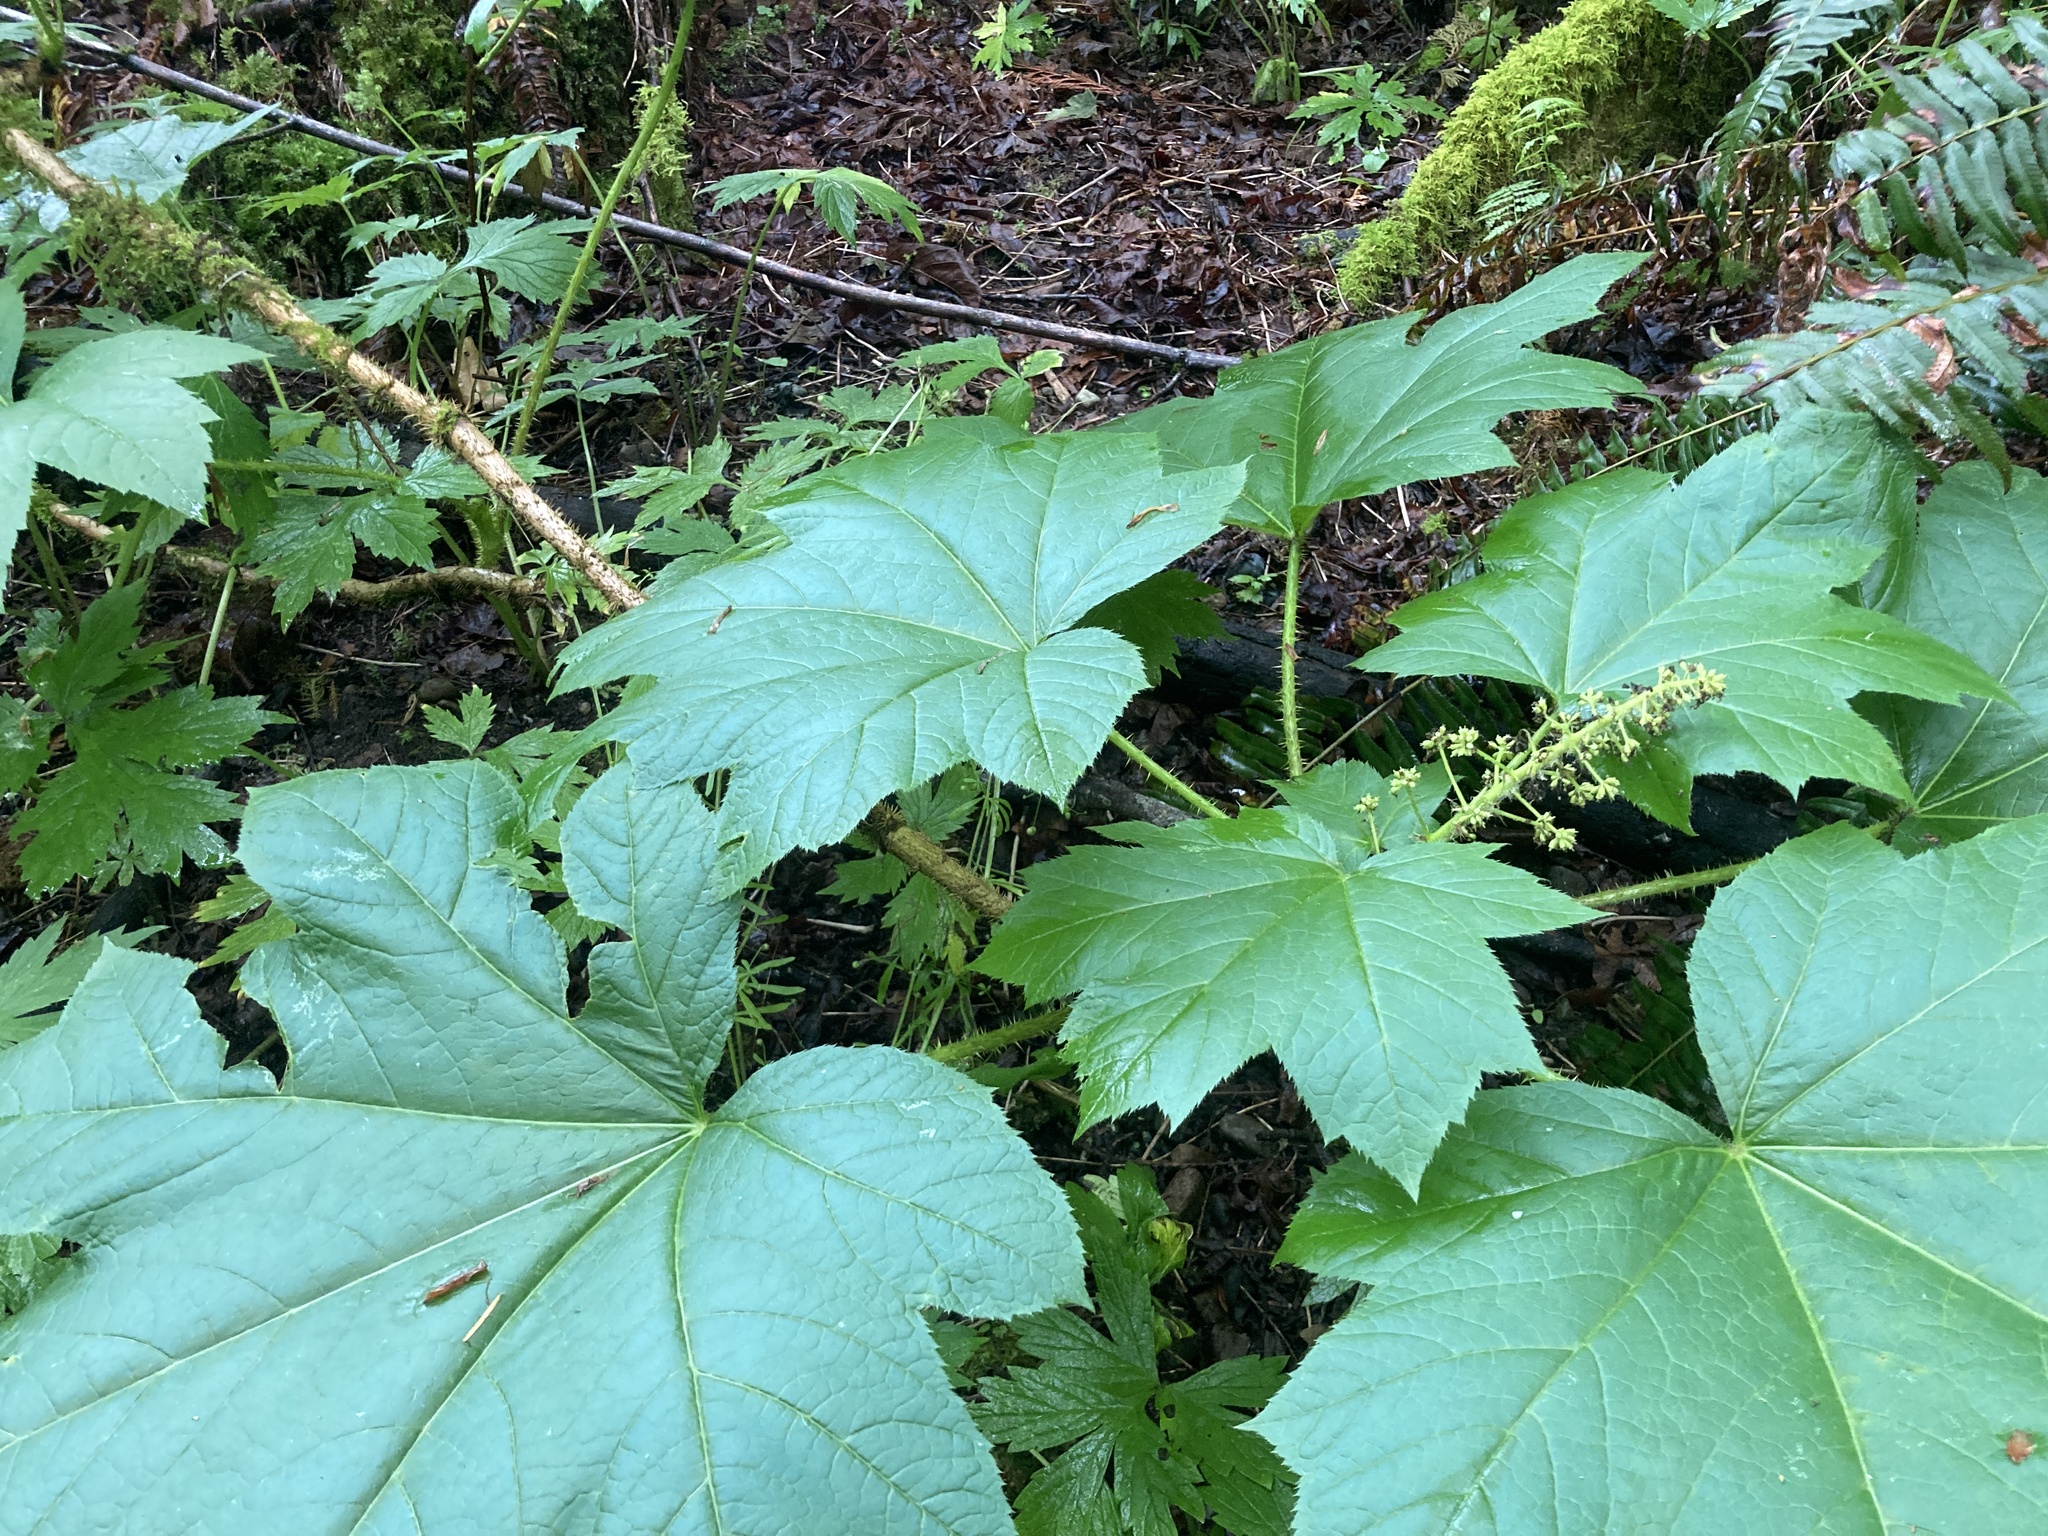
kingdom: Plantae
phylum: Tracheophyta
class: Magnoliopsida
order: Apiales
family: Araliaceae
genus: Oplopanax
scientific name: Oplopanax horridus
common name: Devil's walking-stick
